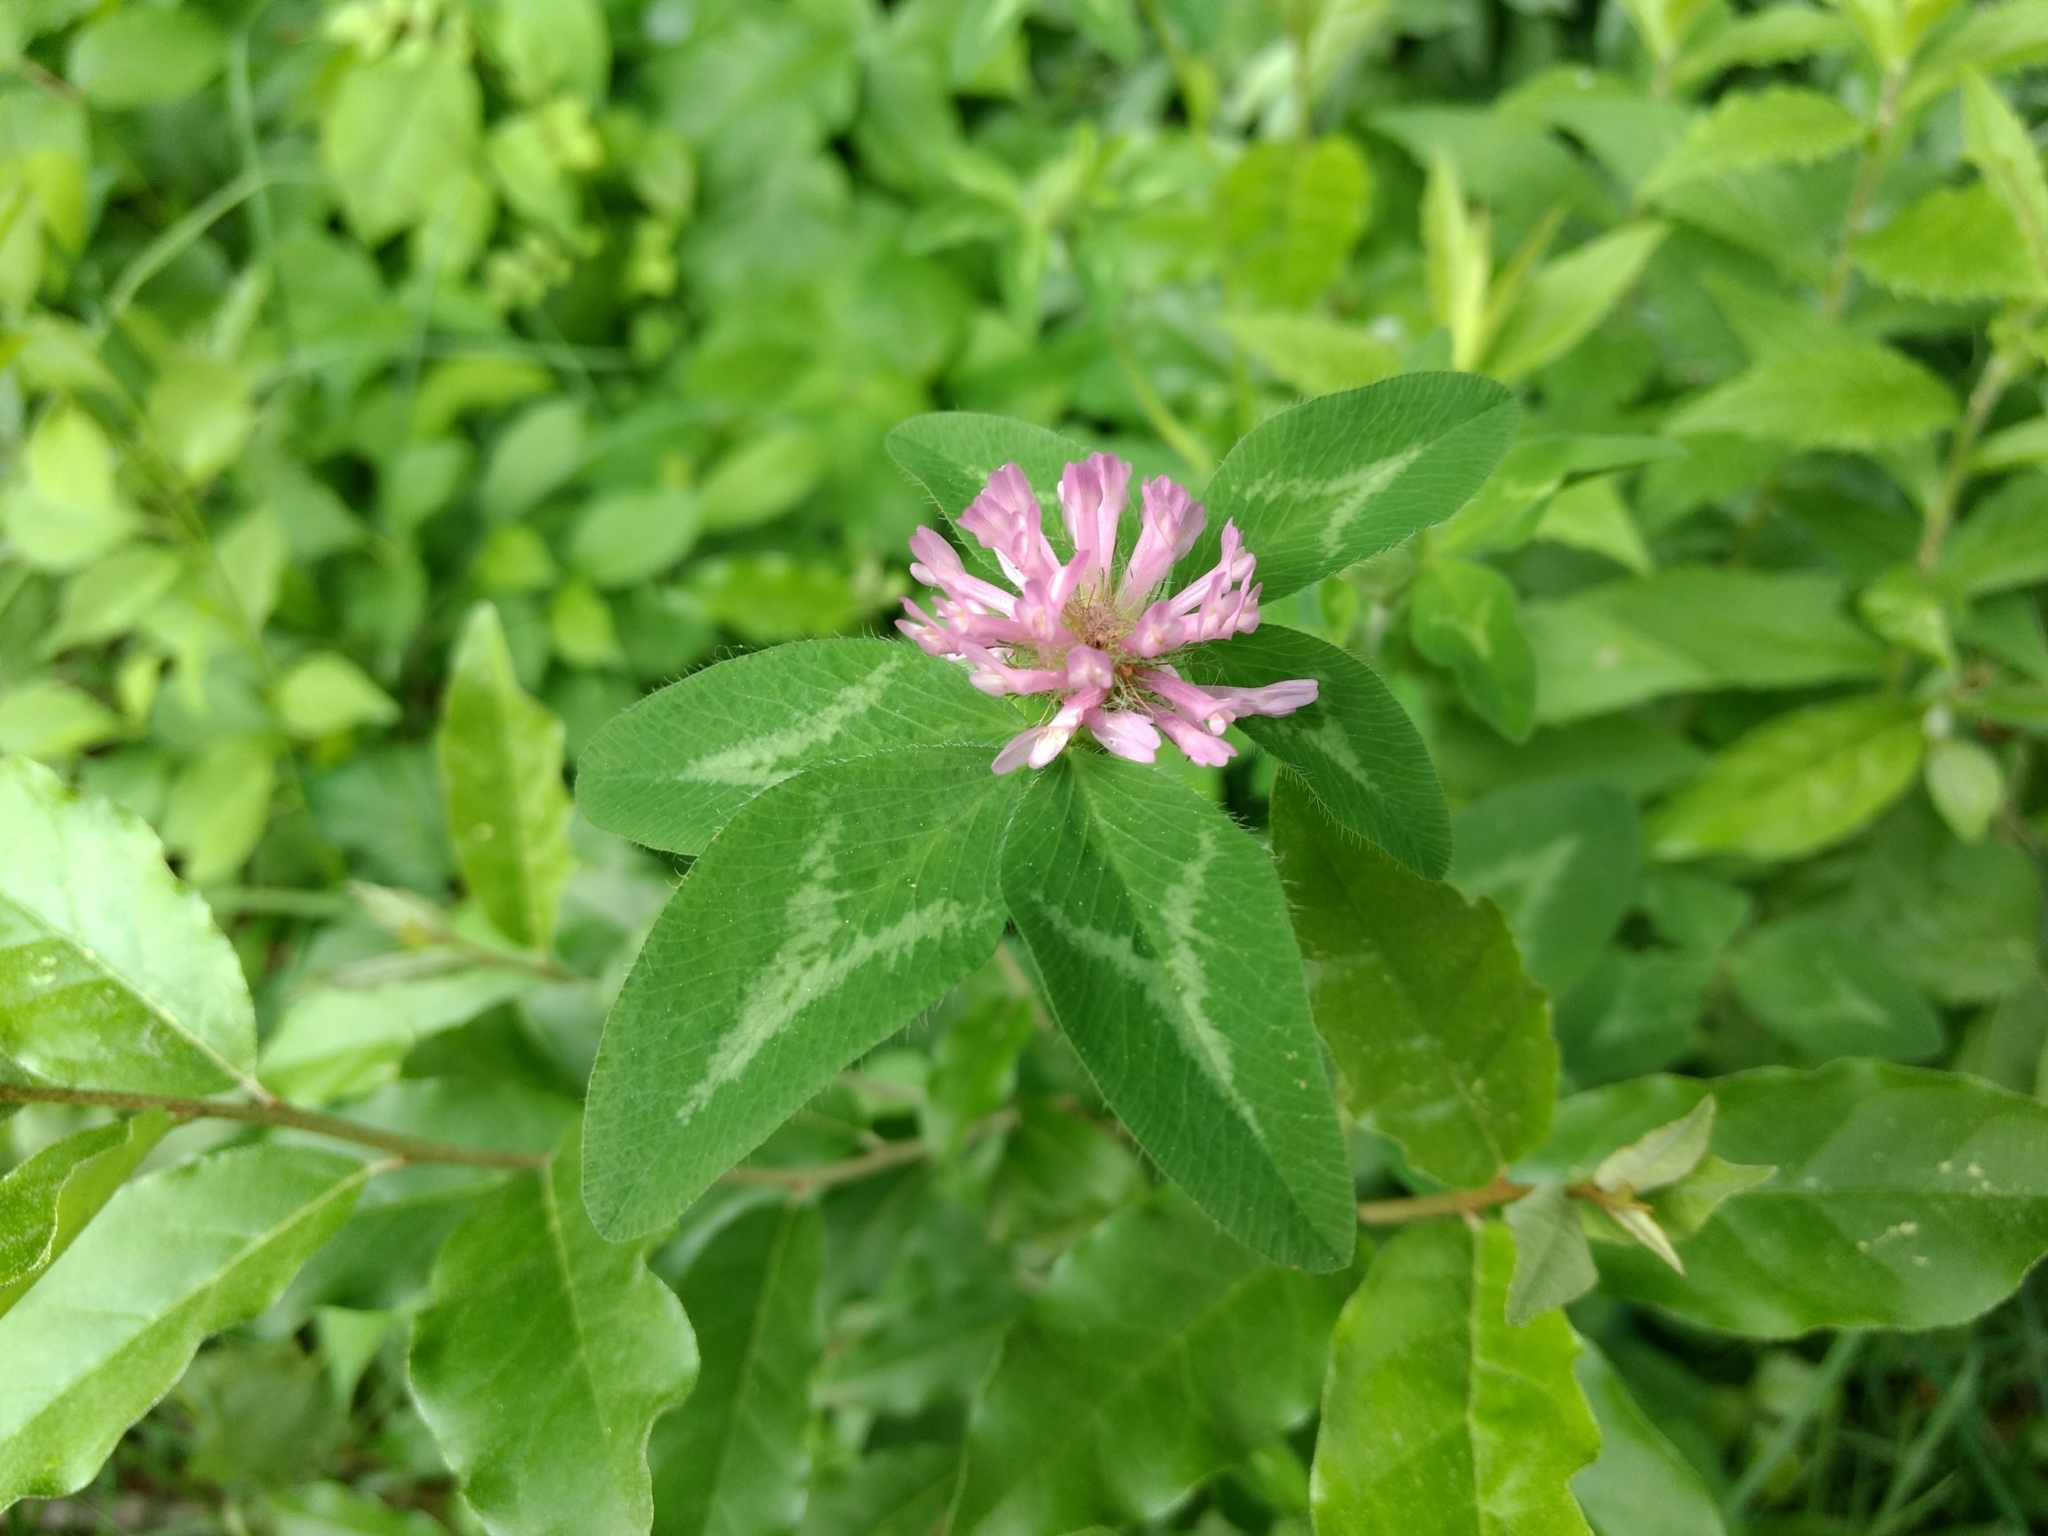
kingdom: Plantae
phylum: Tracheophyta
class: Magnoliopsida
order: Fabales
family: Fabaceae
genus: Trifolium
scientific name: Trifolium pratense
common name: Red clover
